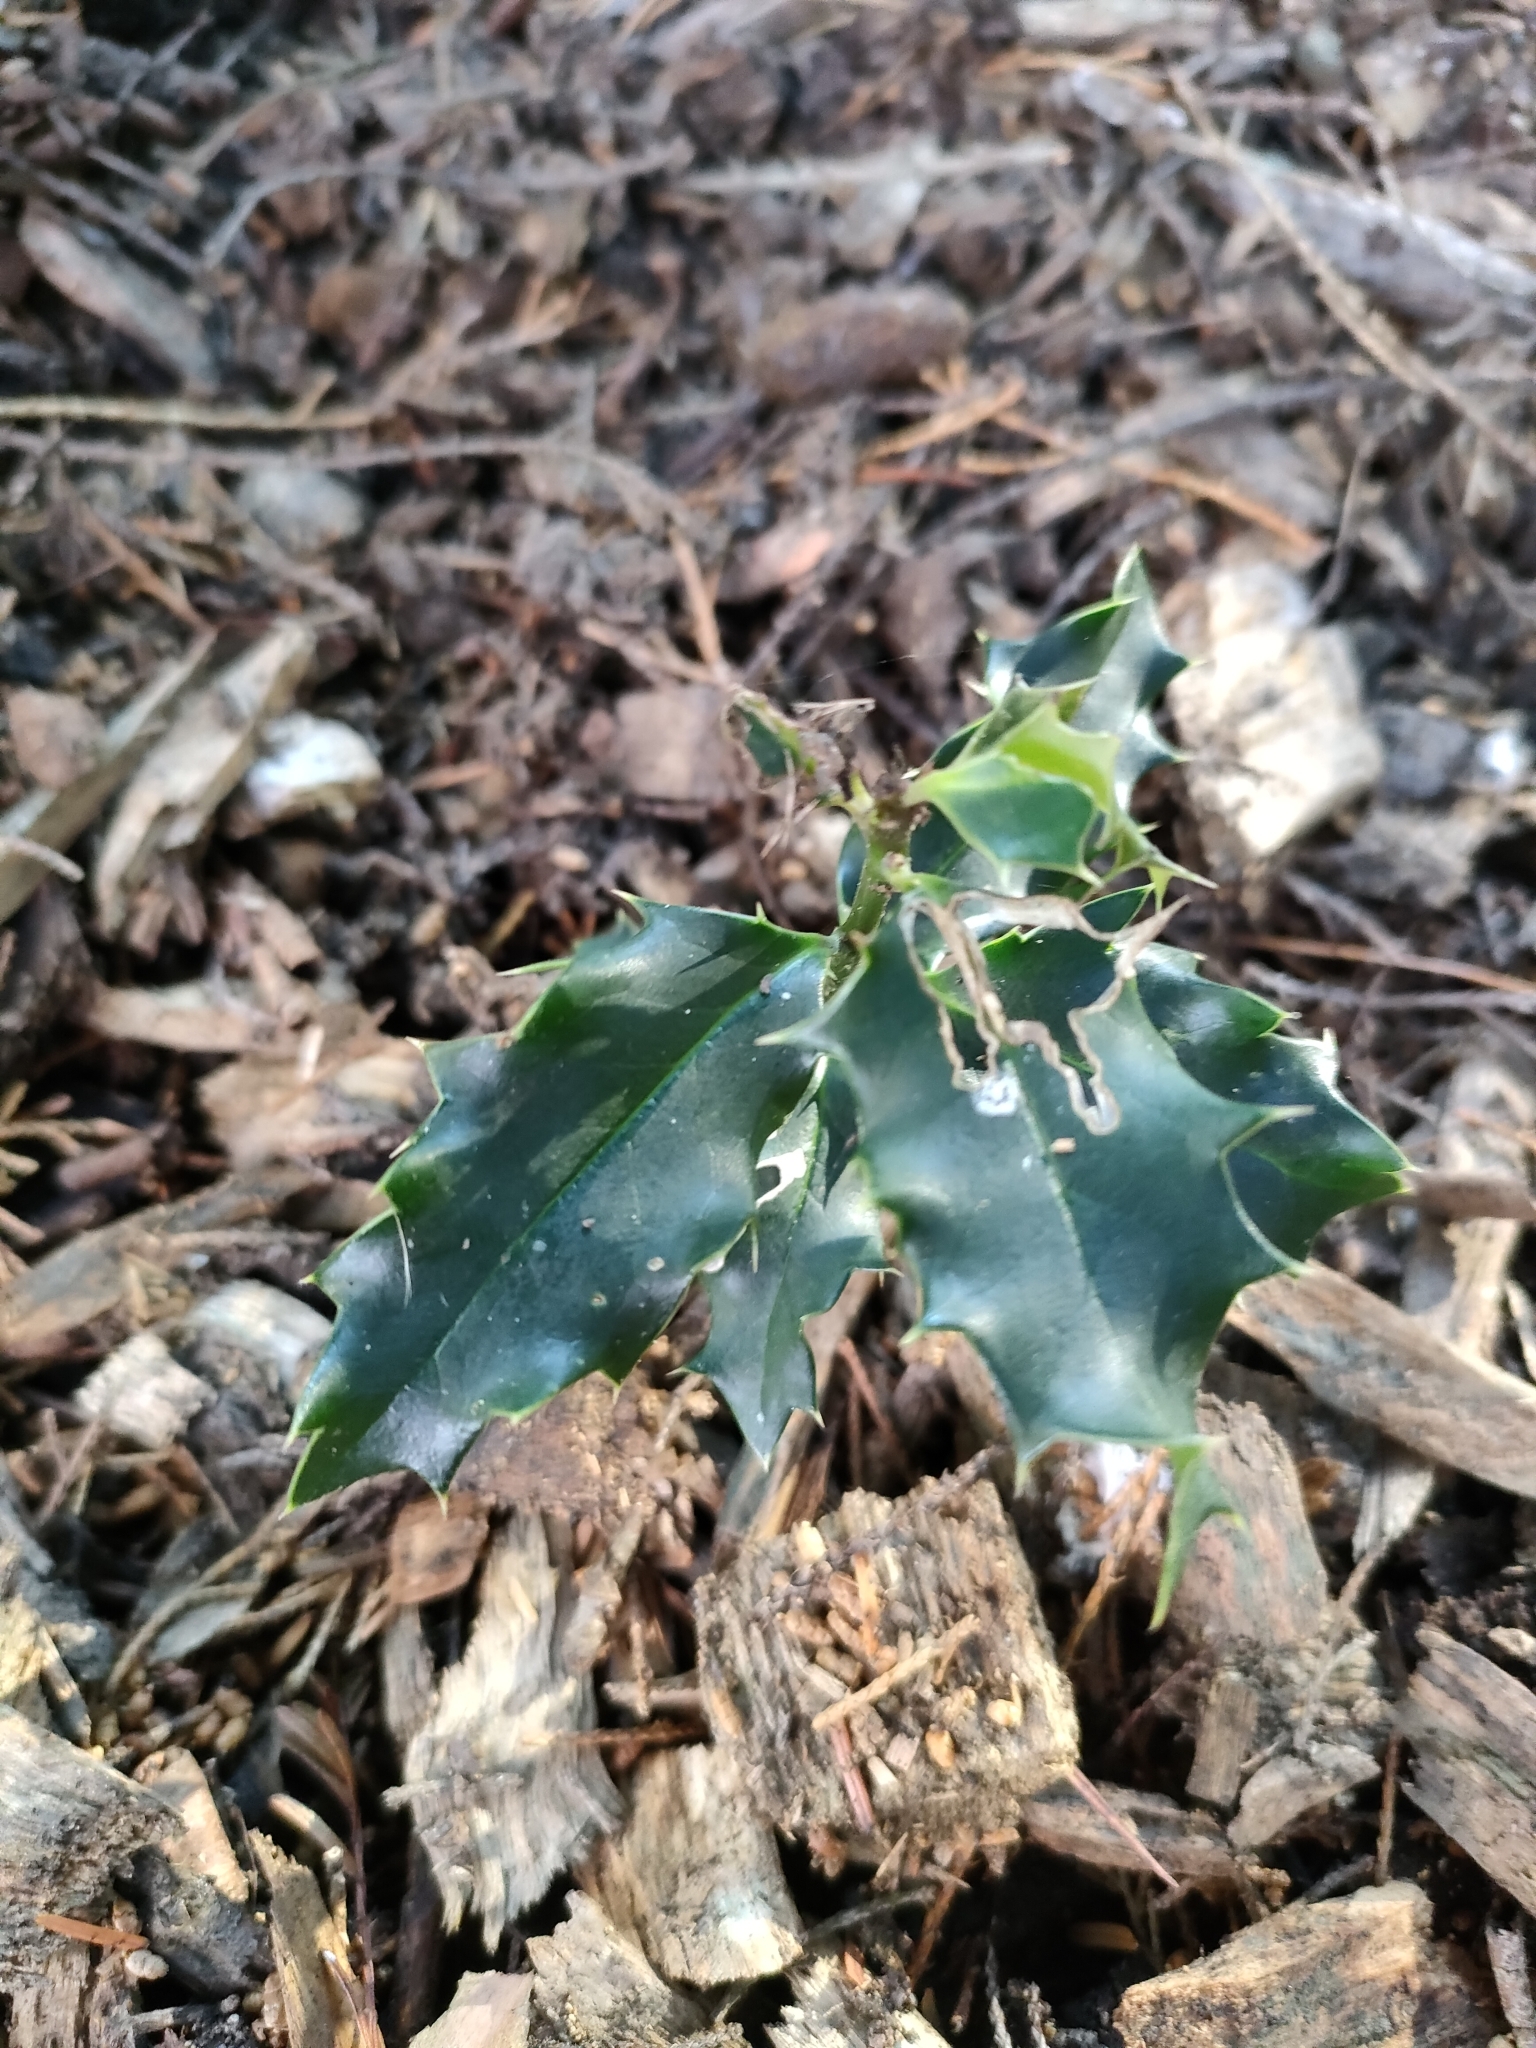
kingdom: Plantae
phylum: Tracheophyta
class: Magnoliopsida
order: Aquifoliales
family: Aquifoliaceae
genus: Ilex
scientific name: Ilex aquifolium
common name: English holly
